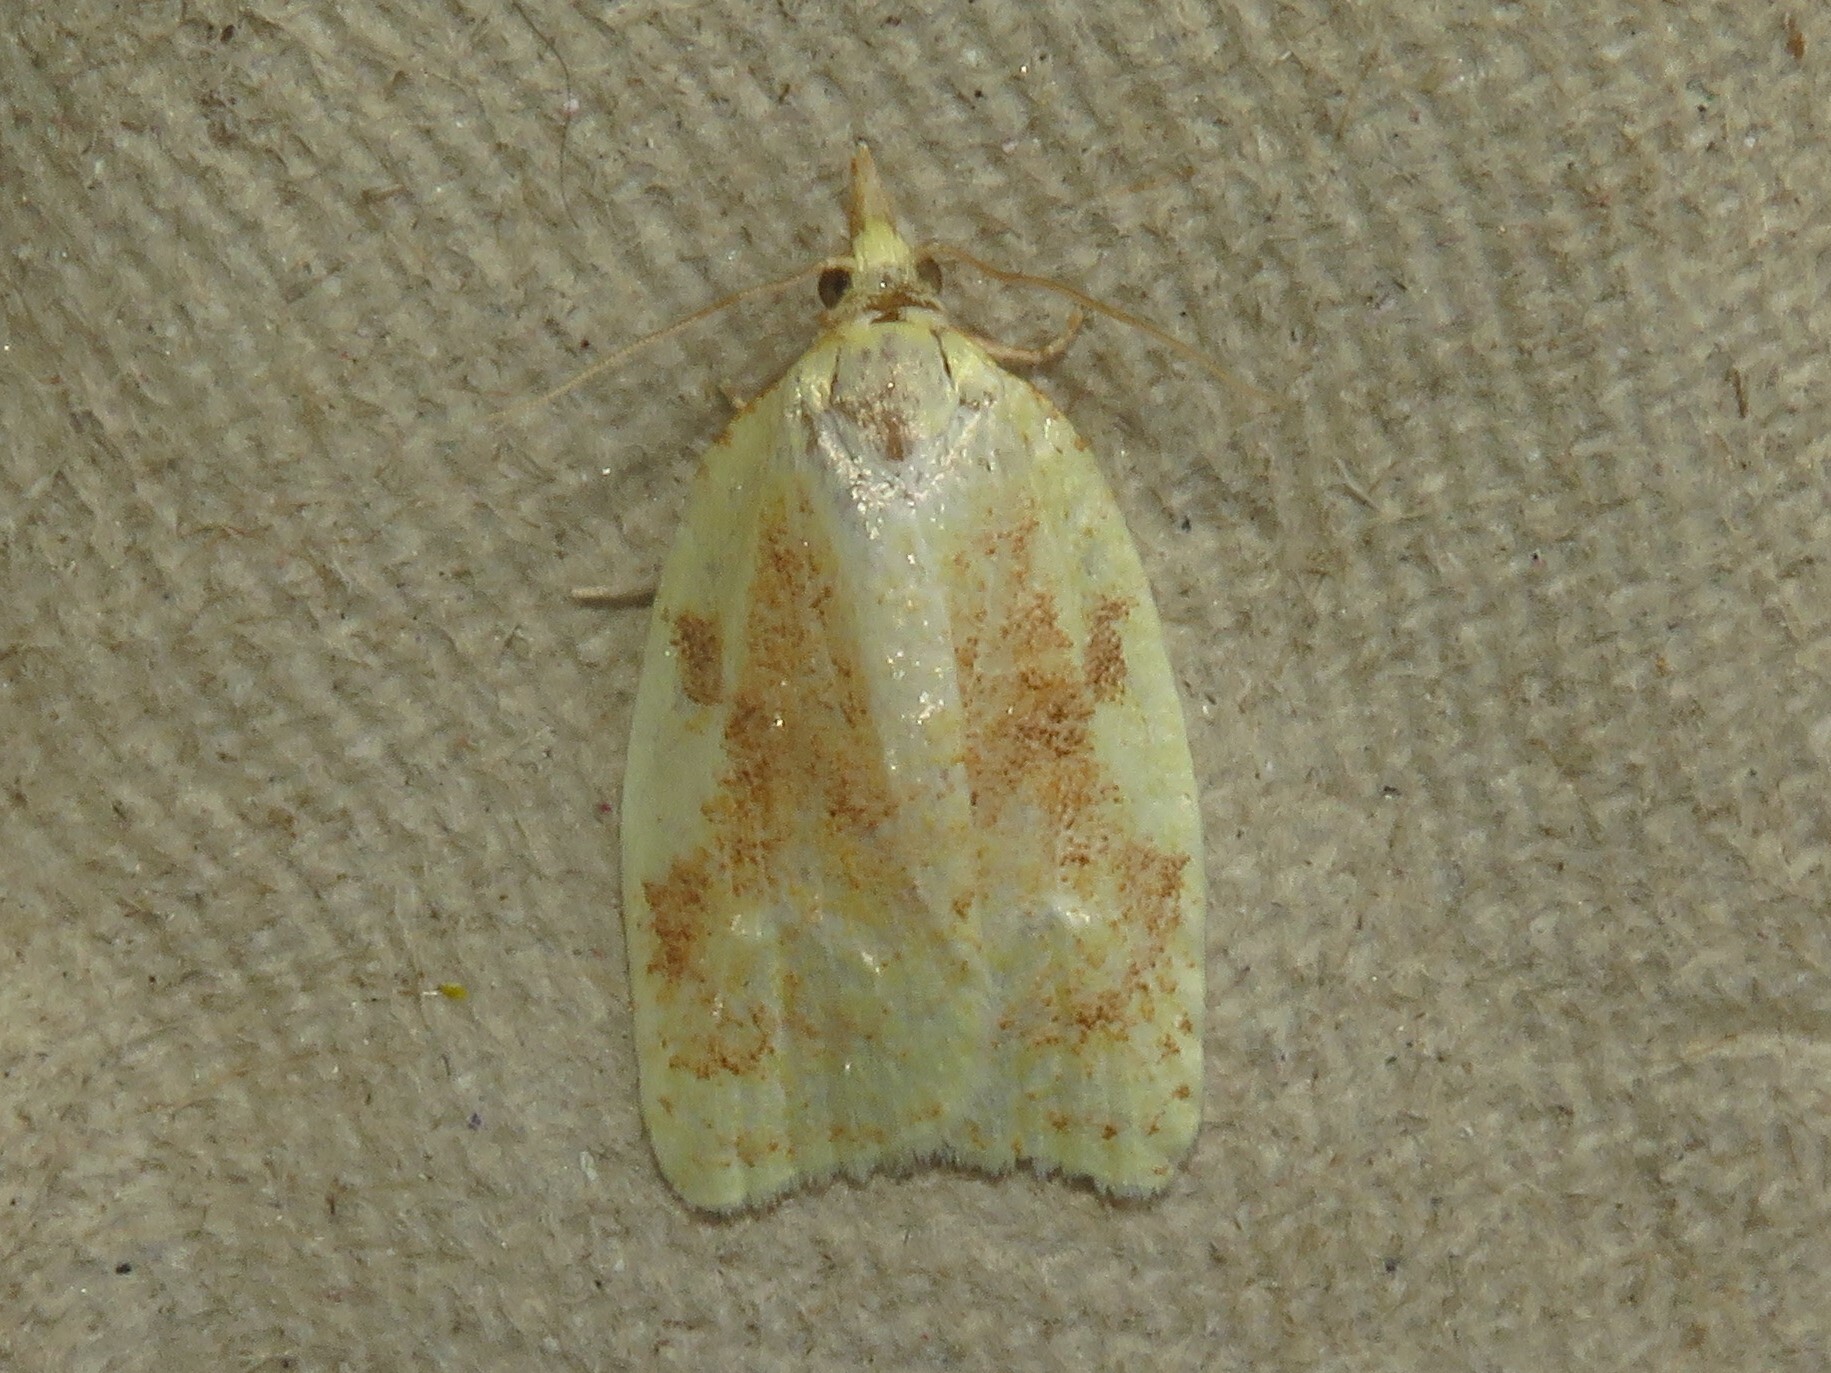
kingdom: Animalia
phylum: Arthropoda
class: Insecta
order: Lepidoptera
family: Tortricidae
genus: Cenopis
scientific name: Cenopis pettitana
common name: Maple-basswood leafroller moth
